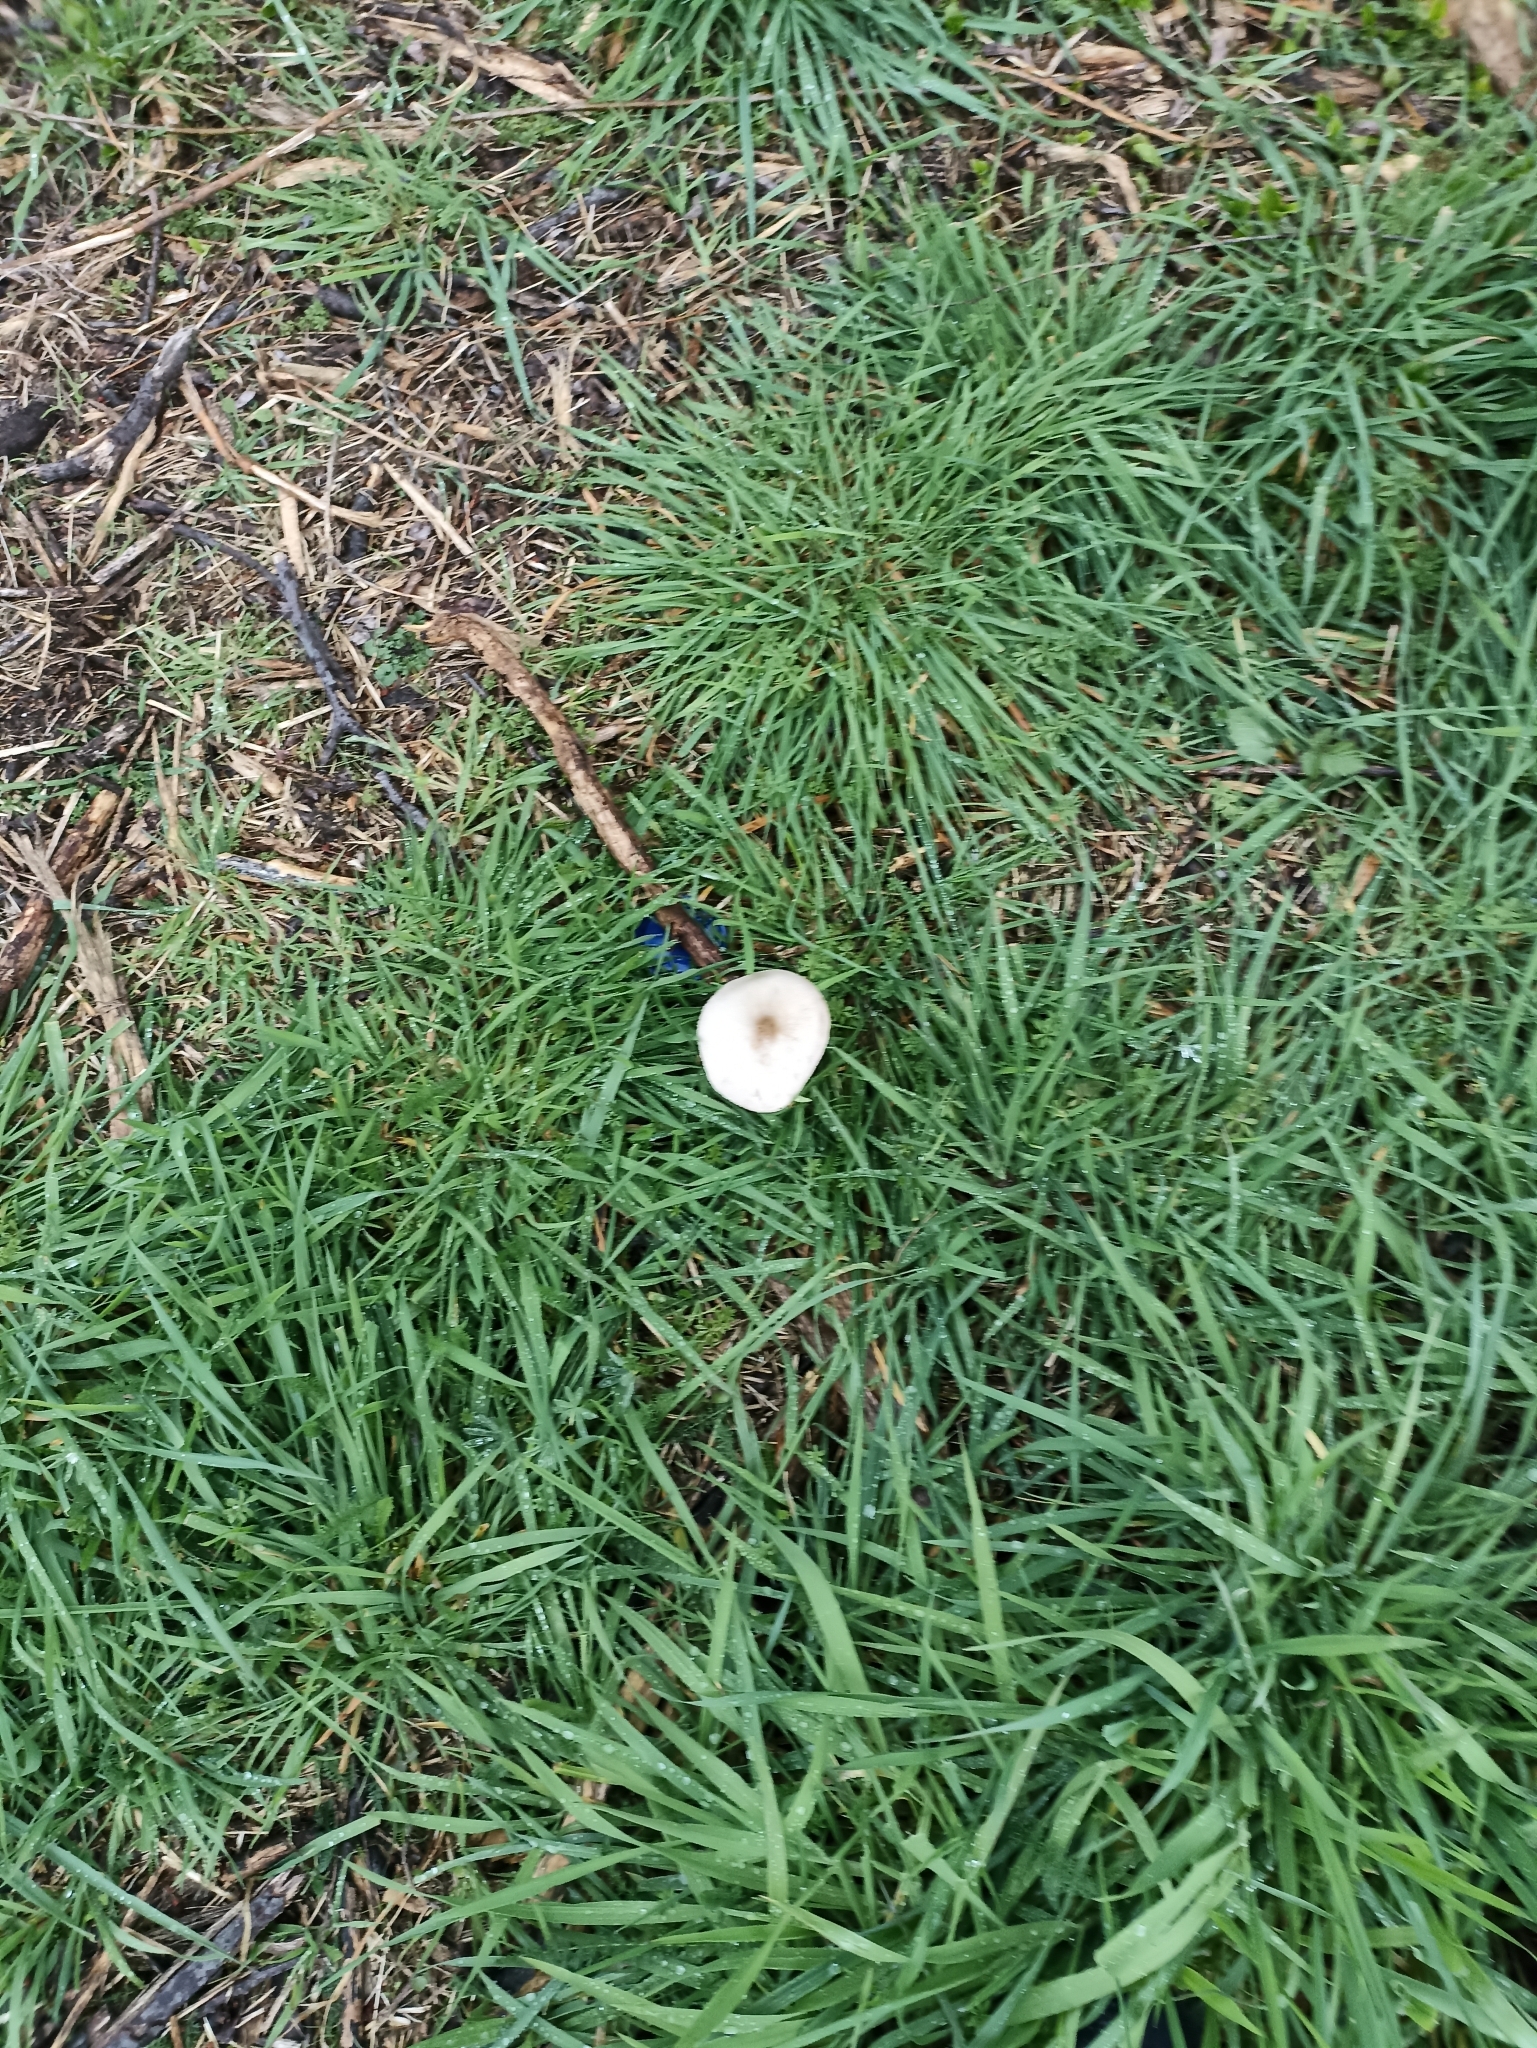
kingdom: Fungi
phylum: Basidiomycota
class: Agaricomycetes
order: Agaricales
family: Pluteaceae
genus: Volvopluteus
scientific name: Volvopluteus gloiocephalus
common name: Stubble rosegill
